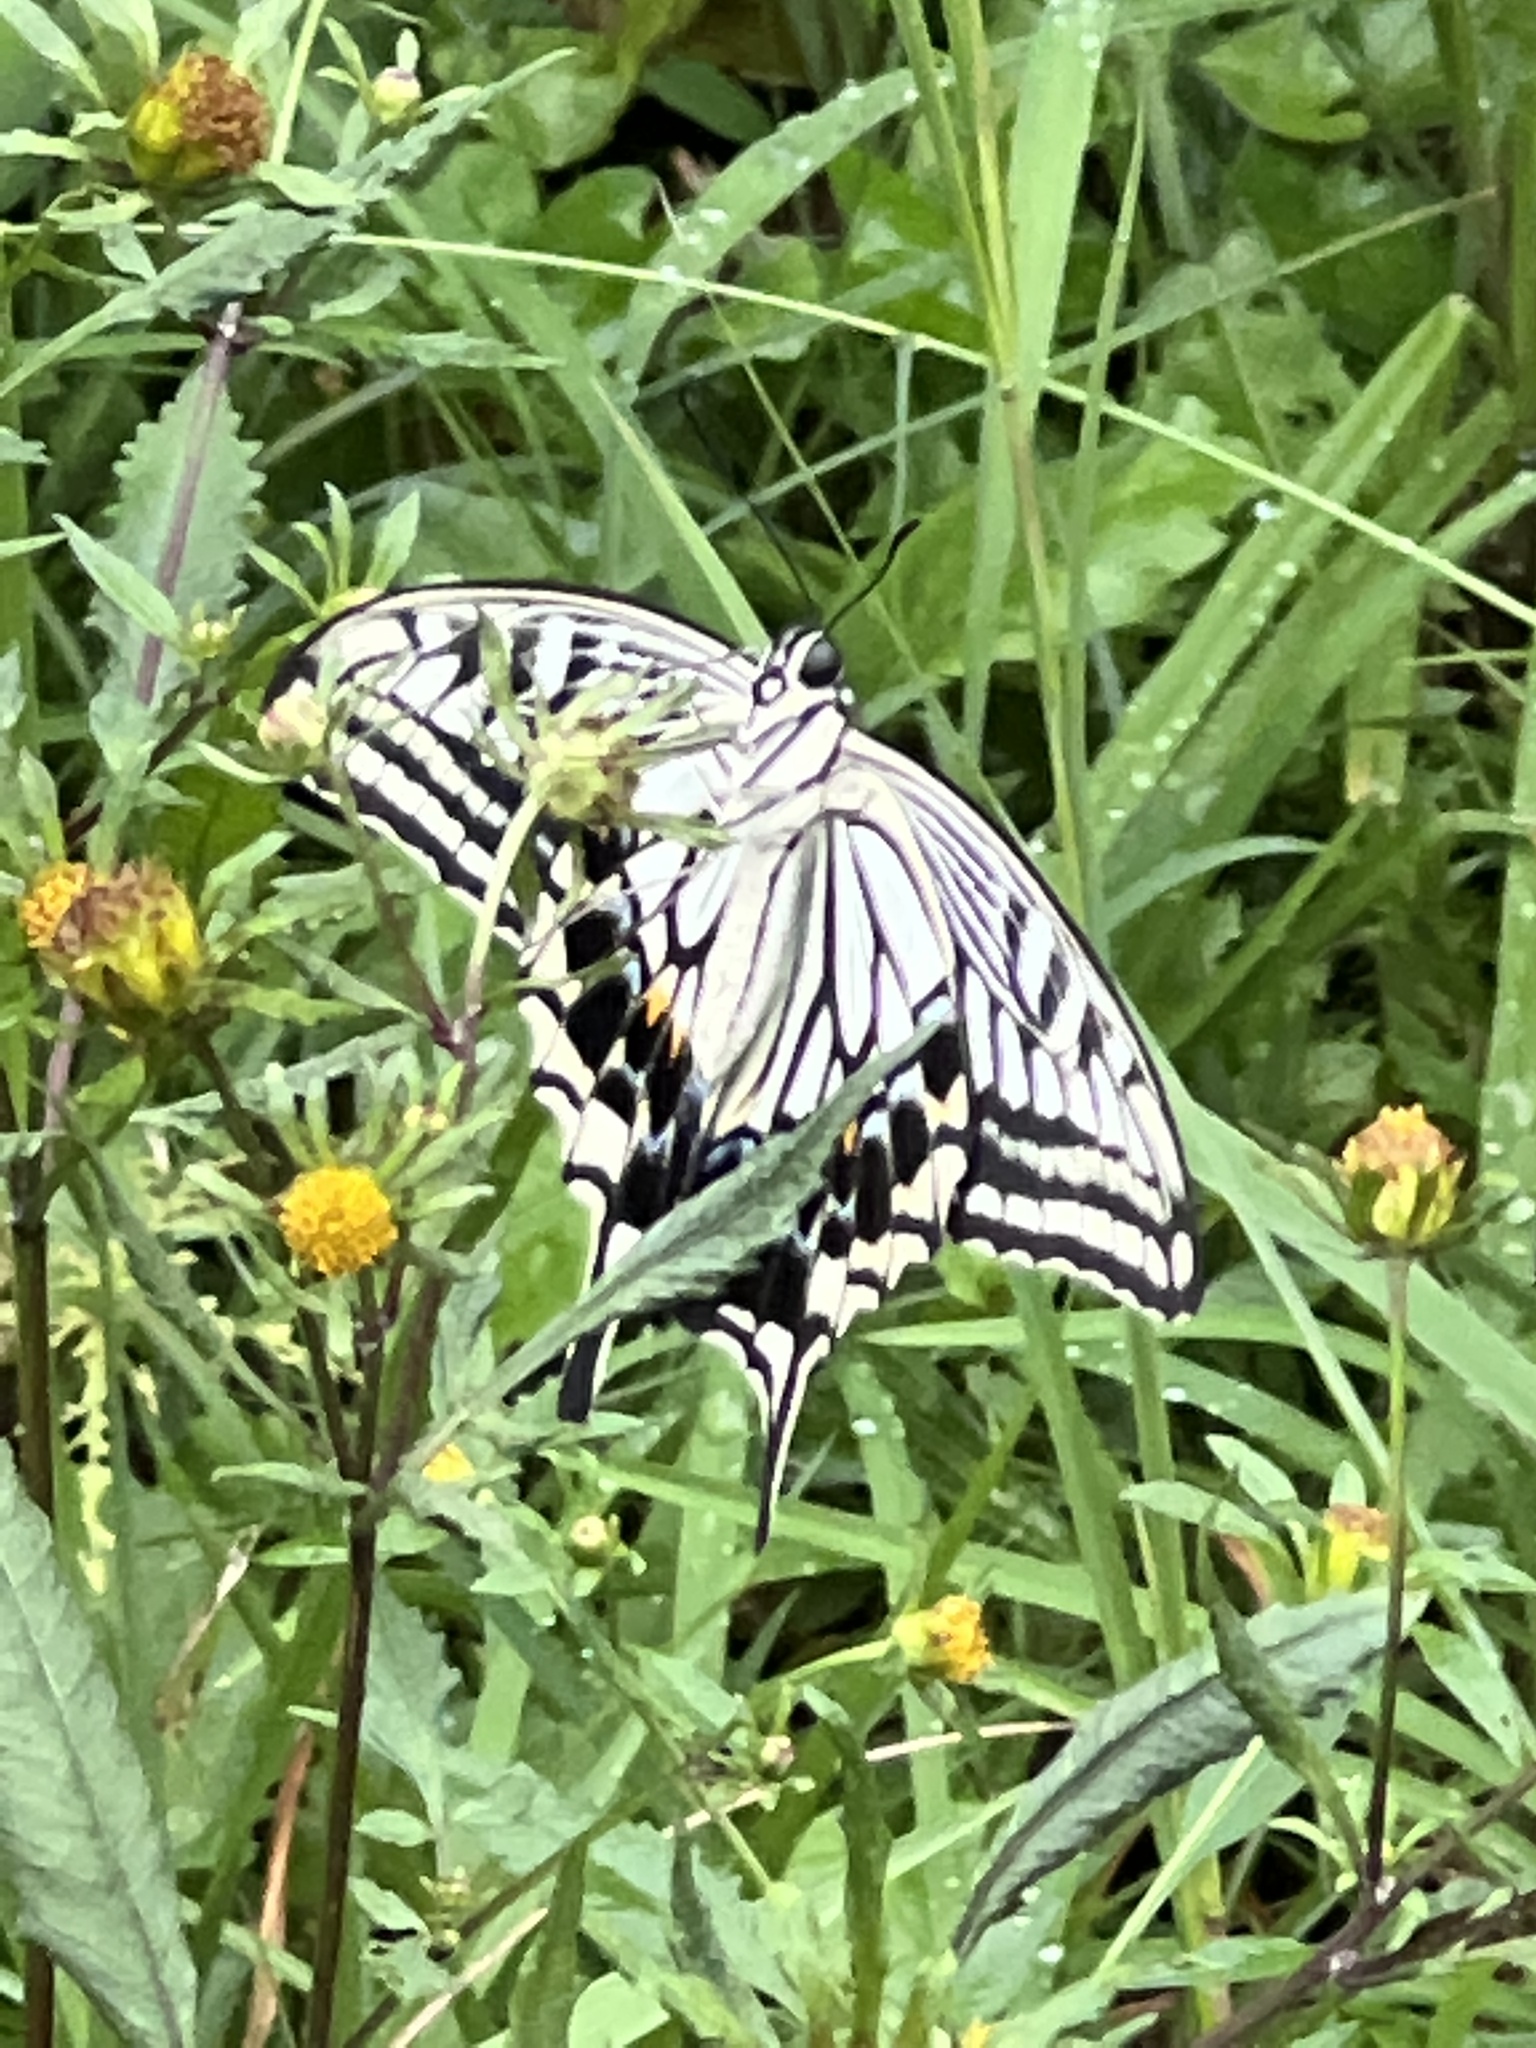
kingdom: Animalia
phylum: Arthropoda
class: Insecta
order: Lepidoptera
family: Papilionidae
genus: Papilio
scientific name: Papilio xuthus
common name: Asian swallowtail
